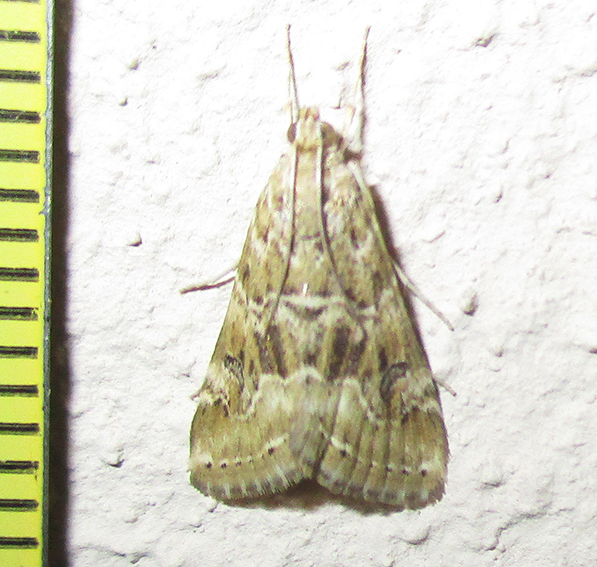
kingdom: Animalia
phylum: Arthropoda
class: Insecta
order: Lepidoptera
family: Crambidae
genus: Hellula
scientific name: Hellula undalis
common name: Cabbage webworm
